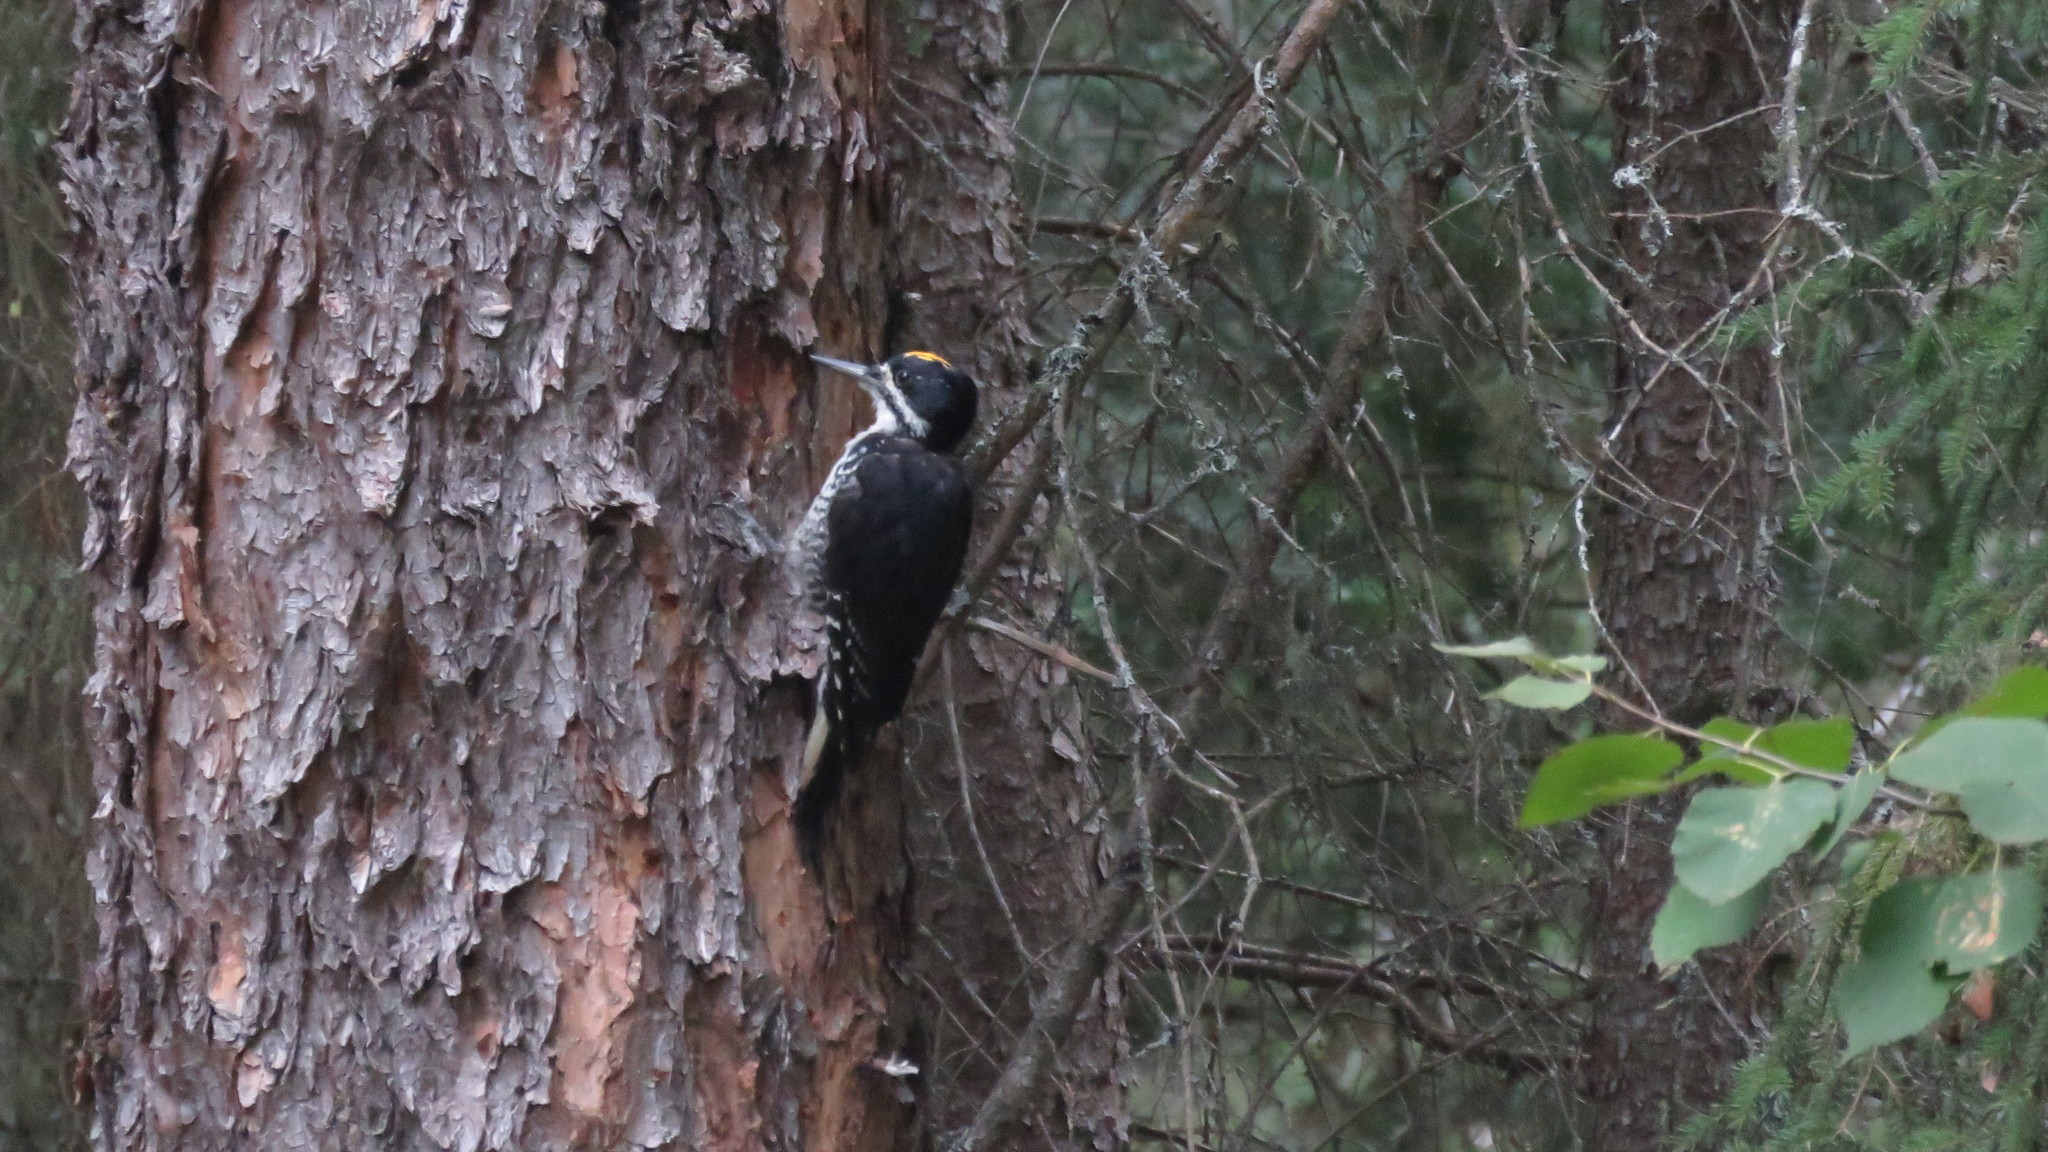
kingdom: Animalia
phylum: Chordata
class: Aves
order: Piciformes
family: Picidae
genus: Picoides
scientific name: Picoides arcticus
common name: Black-backed woodpecker
